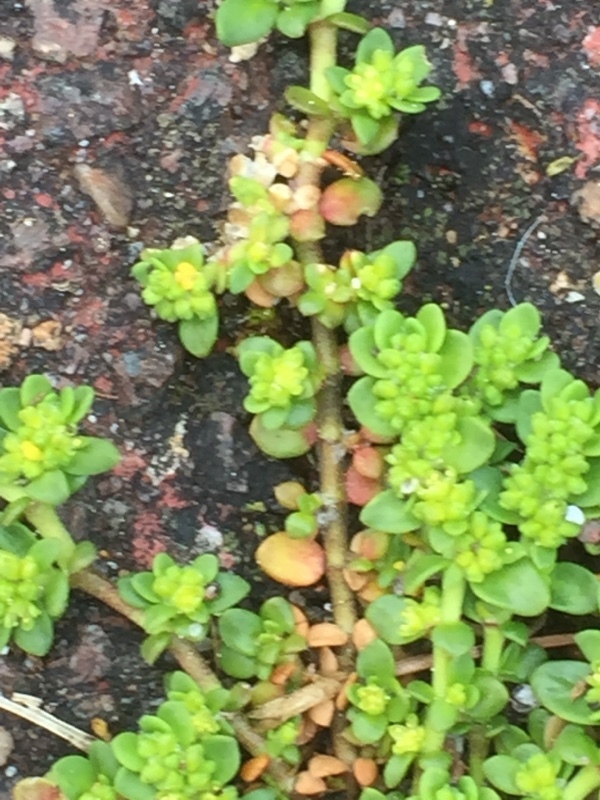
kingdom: Plantae
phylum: Tracheophyta
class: Magnoliopsida
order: Caryophyllales
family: Caryophyllaceae
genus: Herniaria
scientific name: Herniaria glabra
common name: Smooth rupturewort
